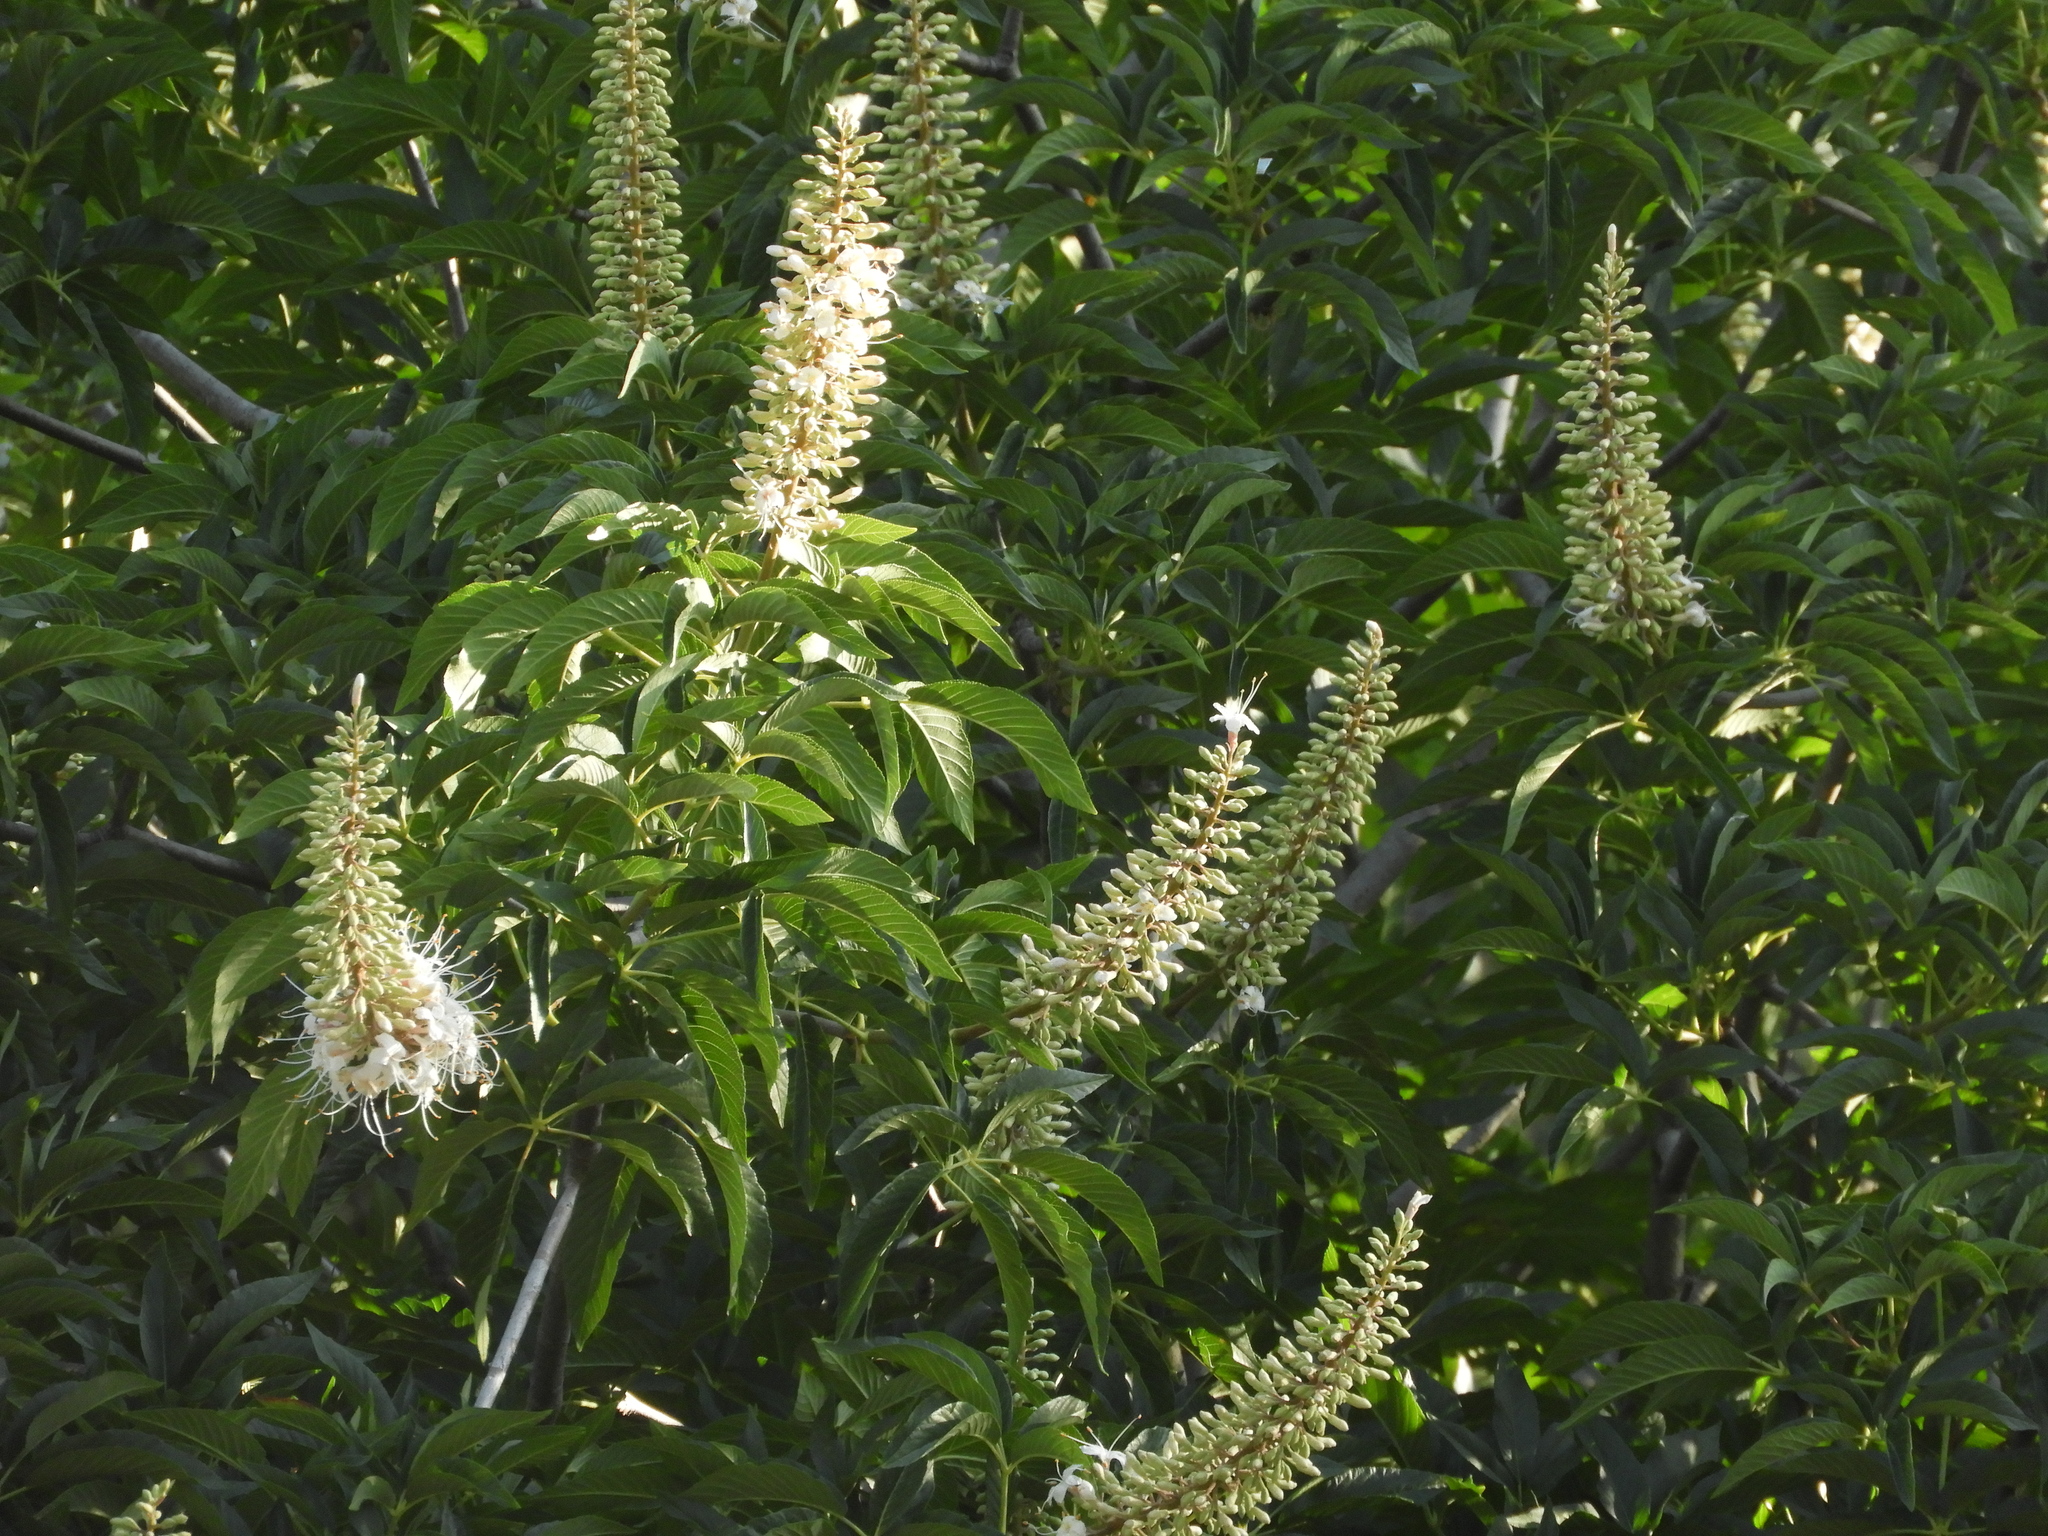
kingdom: Plantae
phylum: Tracheophyta
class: Magnoliopsida
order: Sapindales
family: Sapindaceae
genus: Aesculus
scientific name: Aesculus californica
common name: California buckeye
